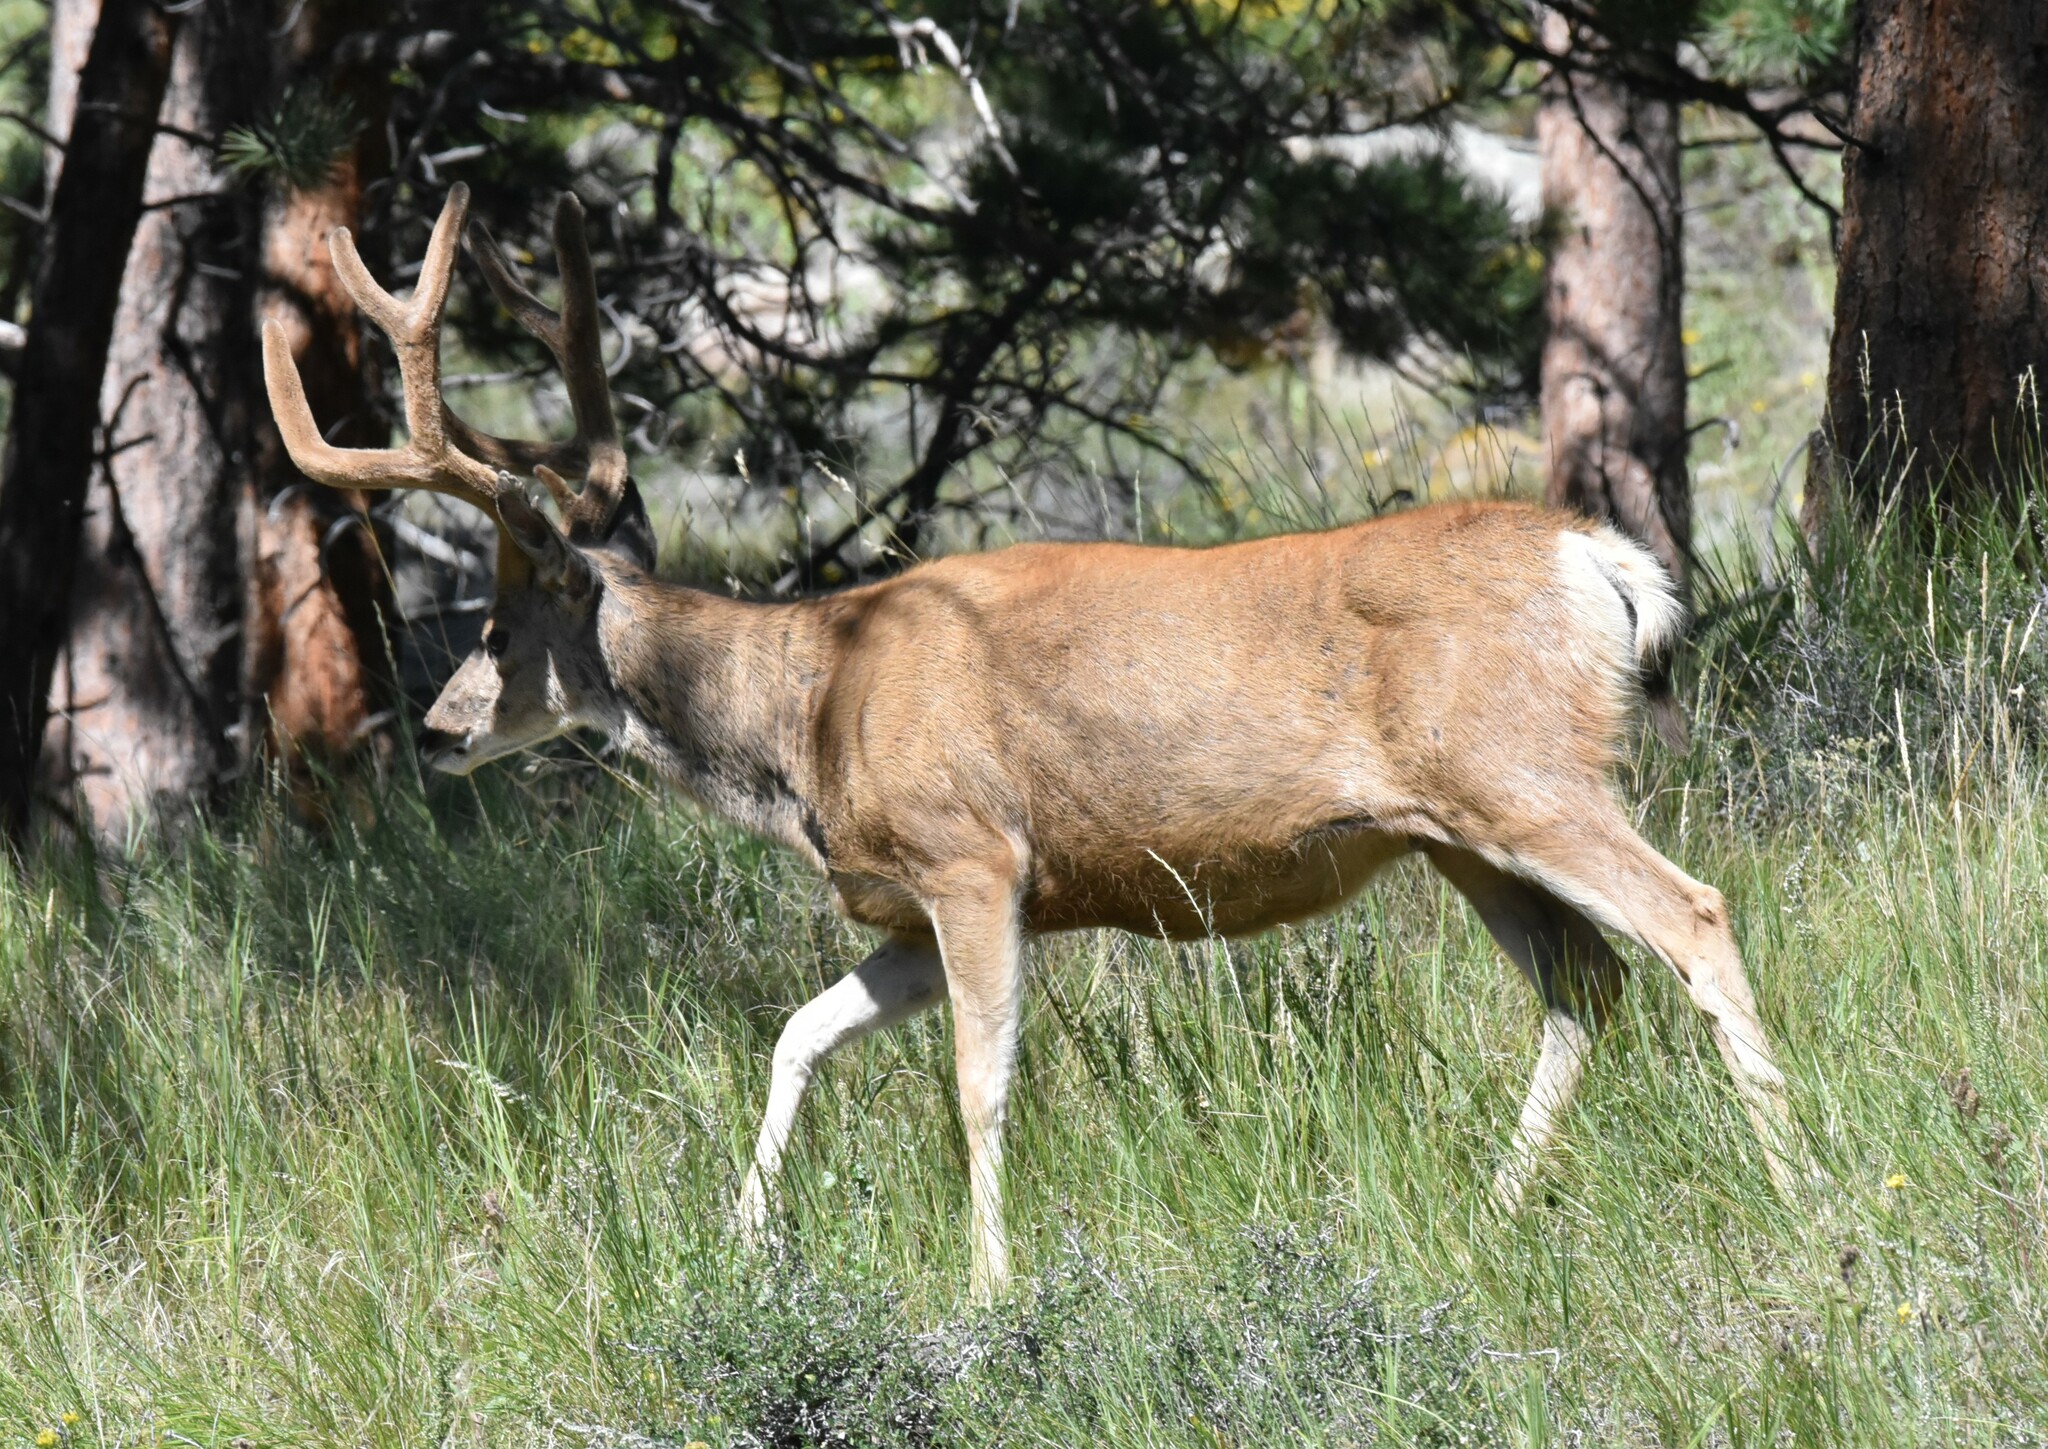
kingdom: Animalia
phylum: Chordata
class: Mammalia
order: Artiodactyla
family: Cervidae
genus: Odocoileus
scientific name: Odocoileus hemionus
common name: Mule deer
